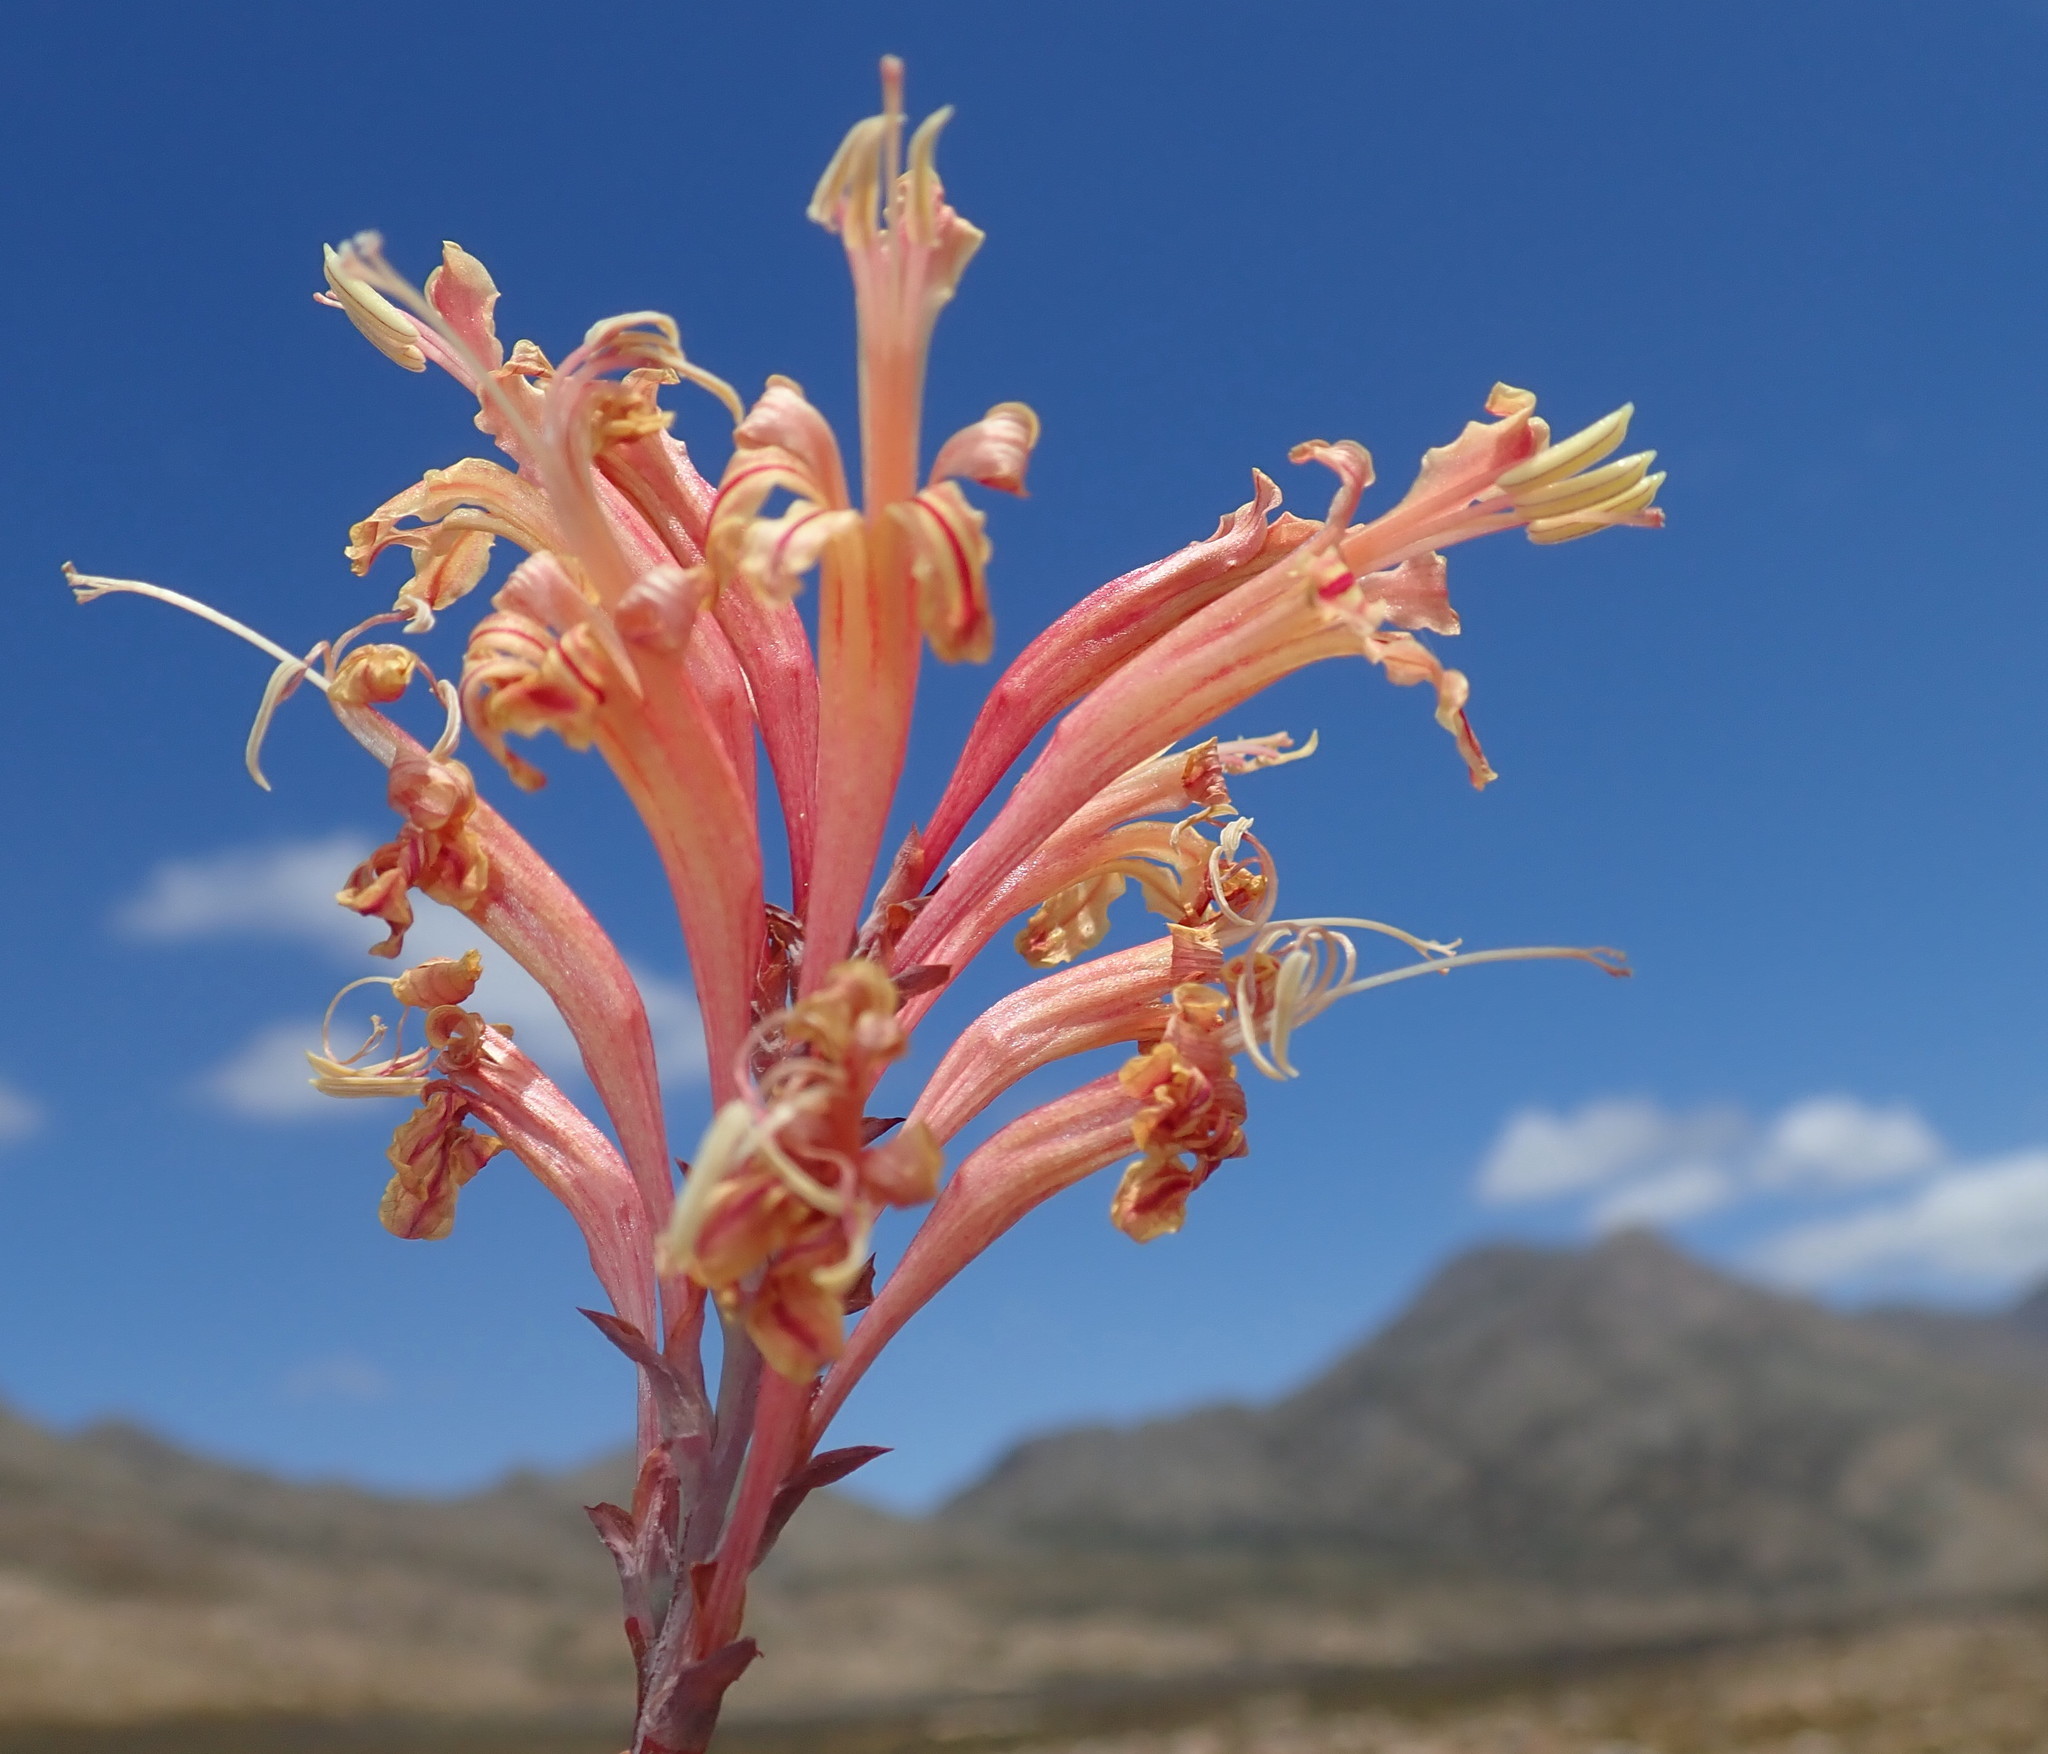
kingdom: Plantae
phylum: Tracheophyta
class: Liliopsida
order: Asparagales
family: Iridaceae
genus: Tritoniopsis
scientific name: Tritoniopsis antholyza
